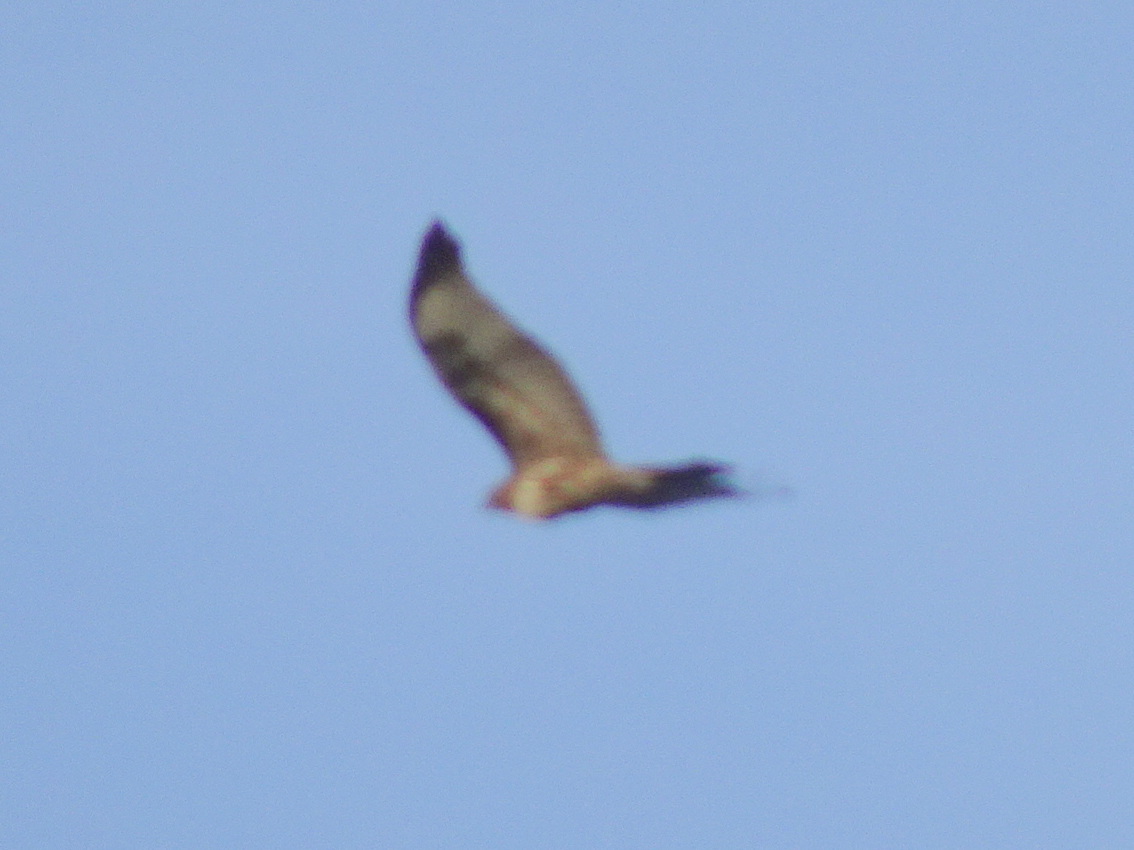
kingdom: Animalia
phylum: Chordata
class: Aves
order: Accipitriformes
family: Accipitridae
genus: Buteo
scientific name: Buteo jamaicensis
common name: Red-tailed hawk
